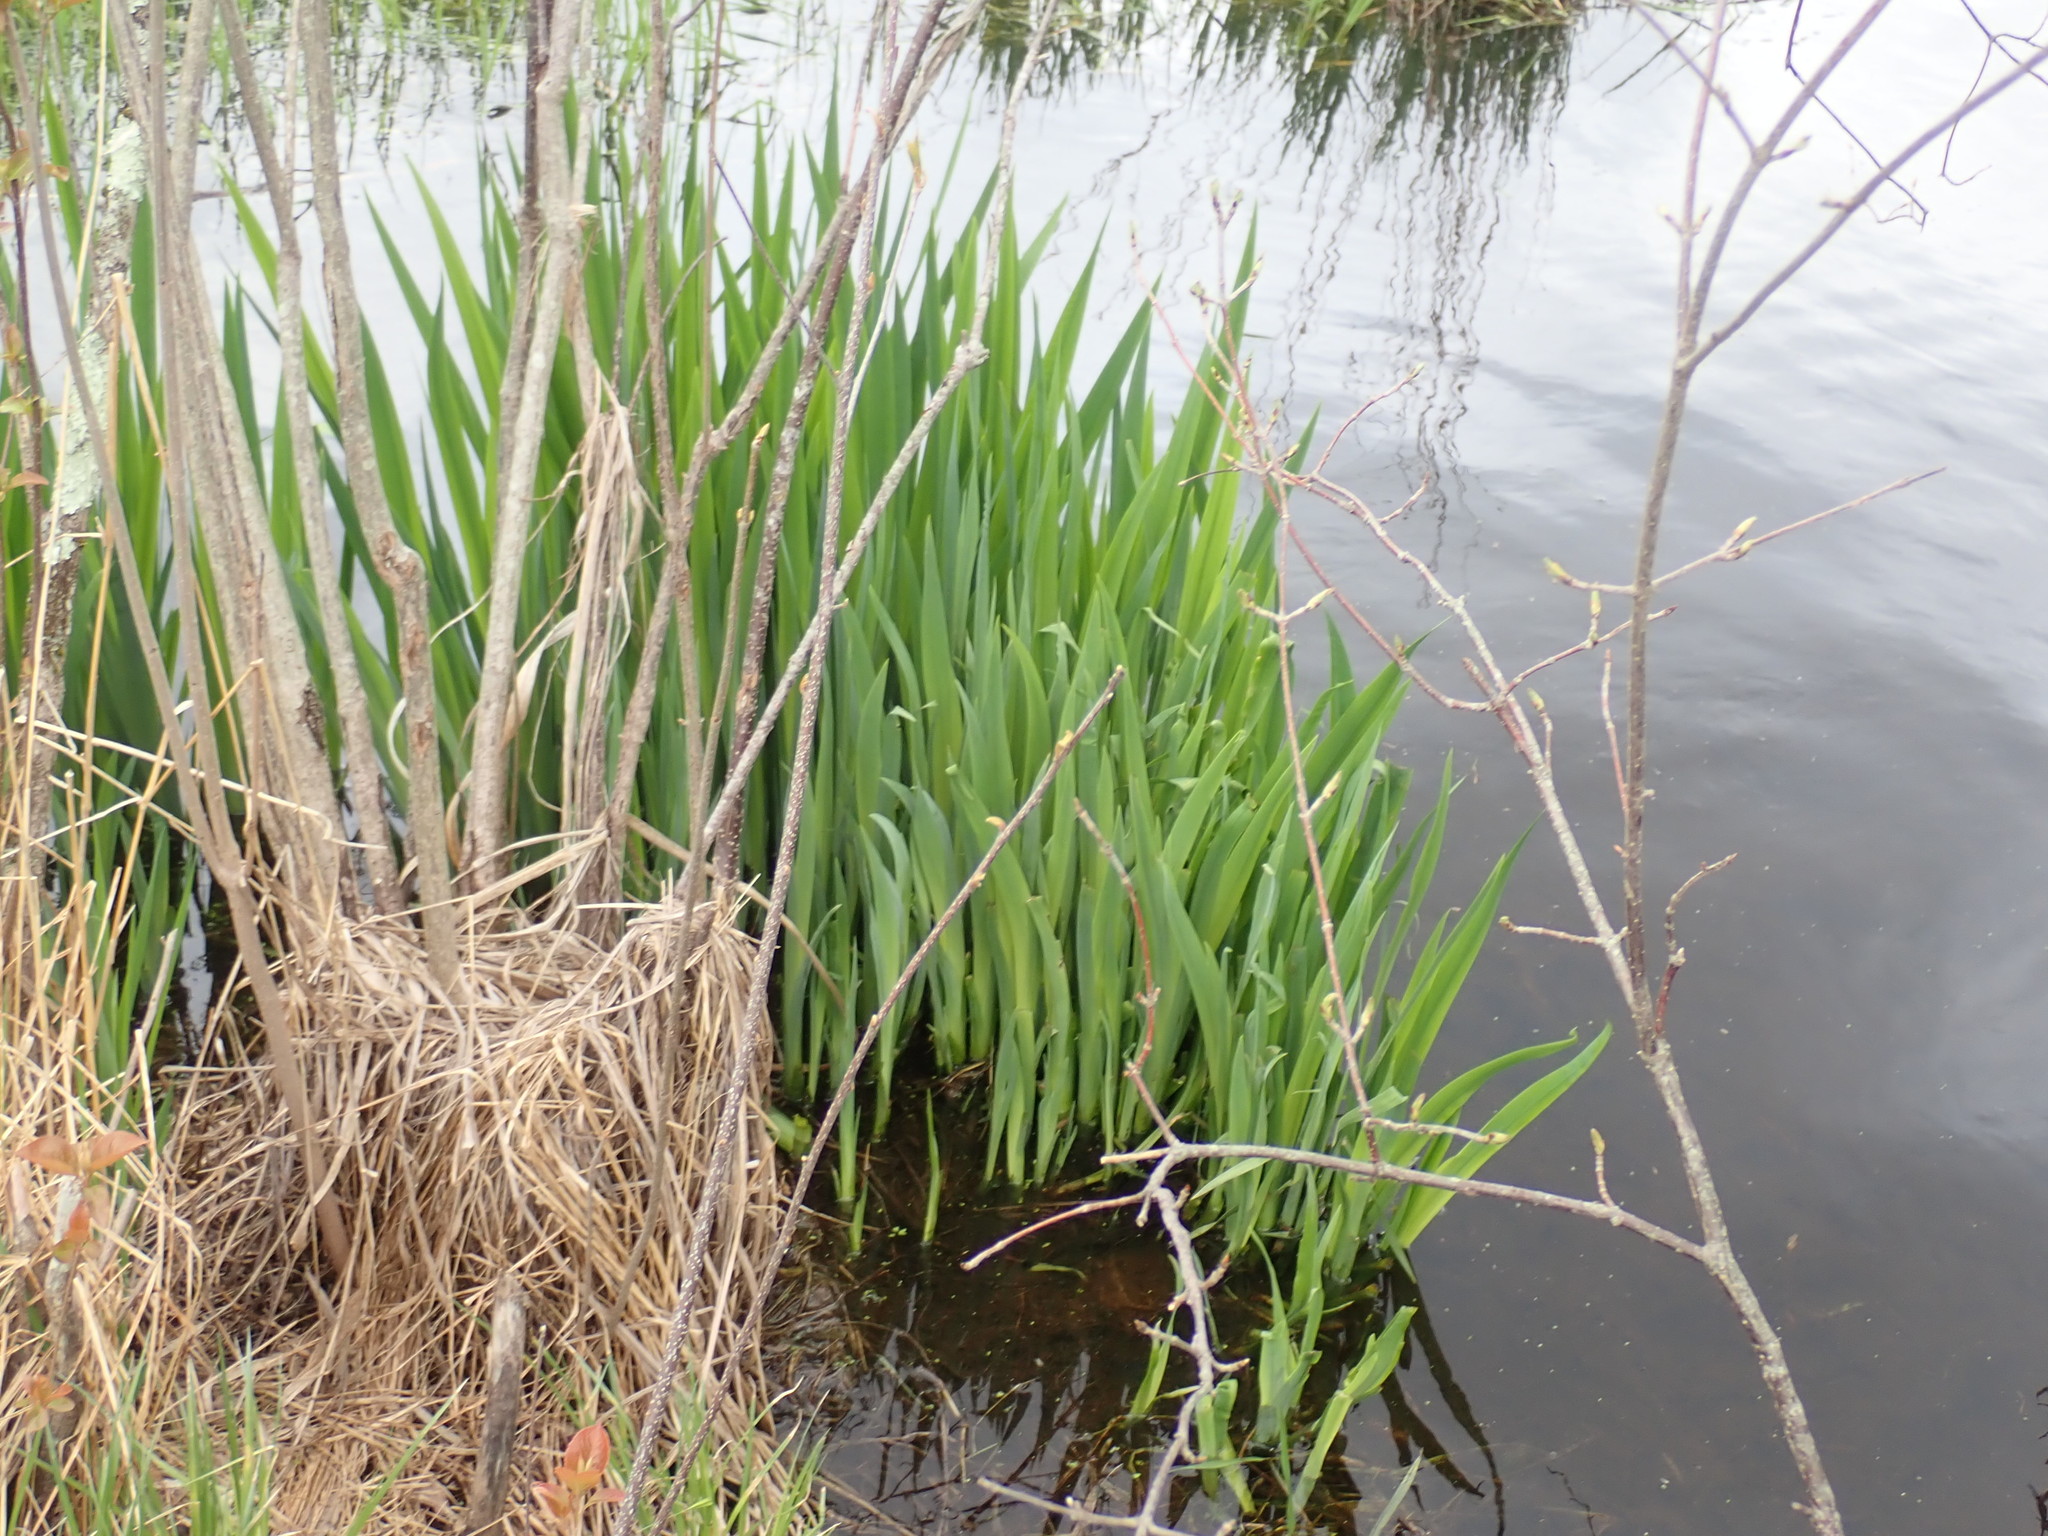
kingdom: Plantae
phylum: Tracheophyta
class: Liliopsida
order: Asparagales
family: Iridaceae
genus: Iris
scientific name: Iris
